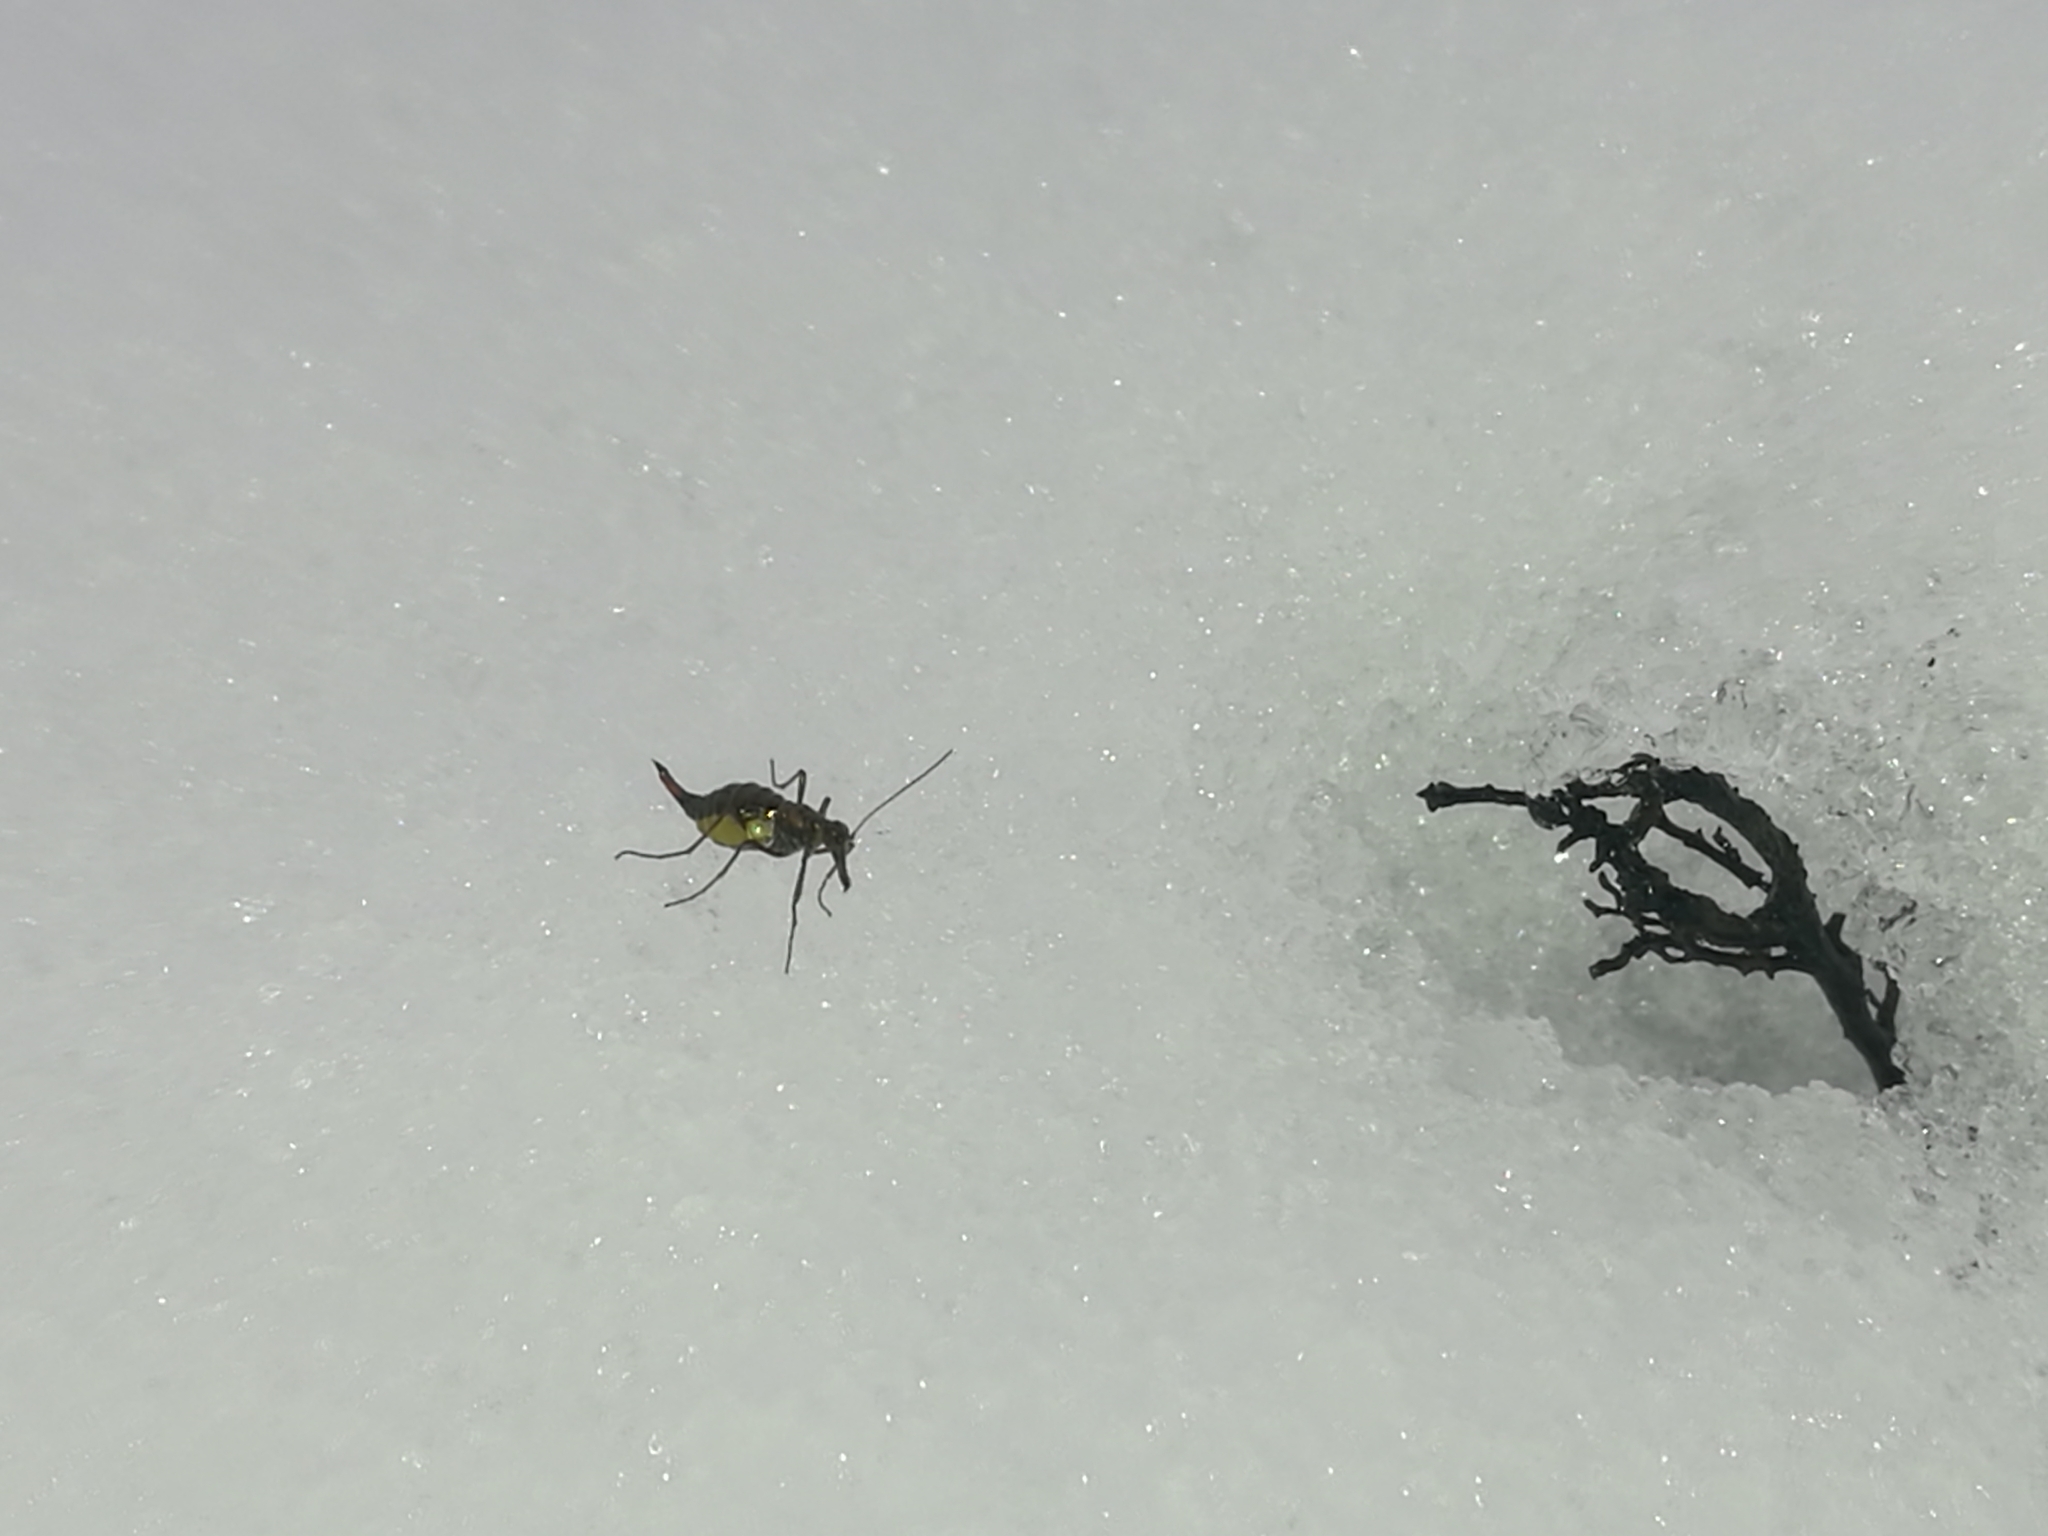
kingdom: Animalia
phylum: Arthropoda
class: Insecta
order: Mecoptera
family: Boreidae
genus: Boreus
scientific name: Boreus westwoodi
